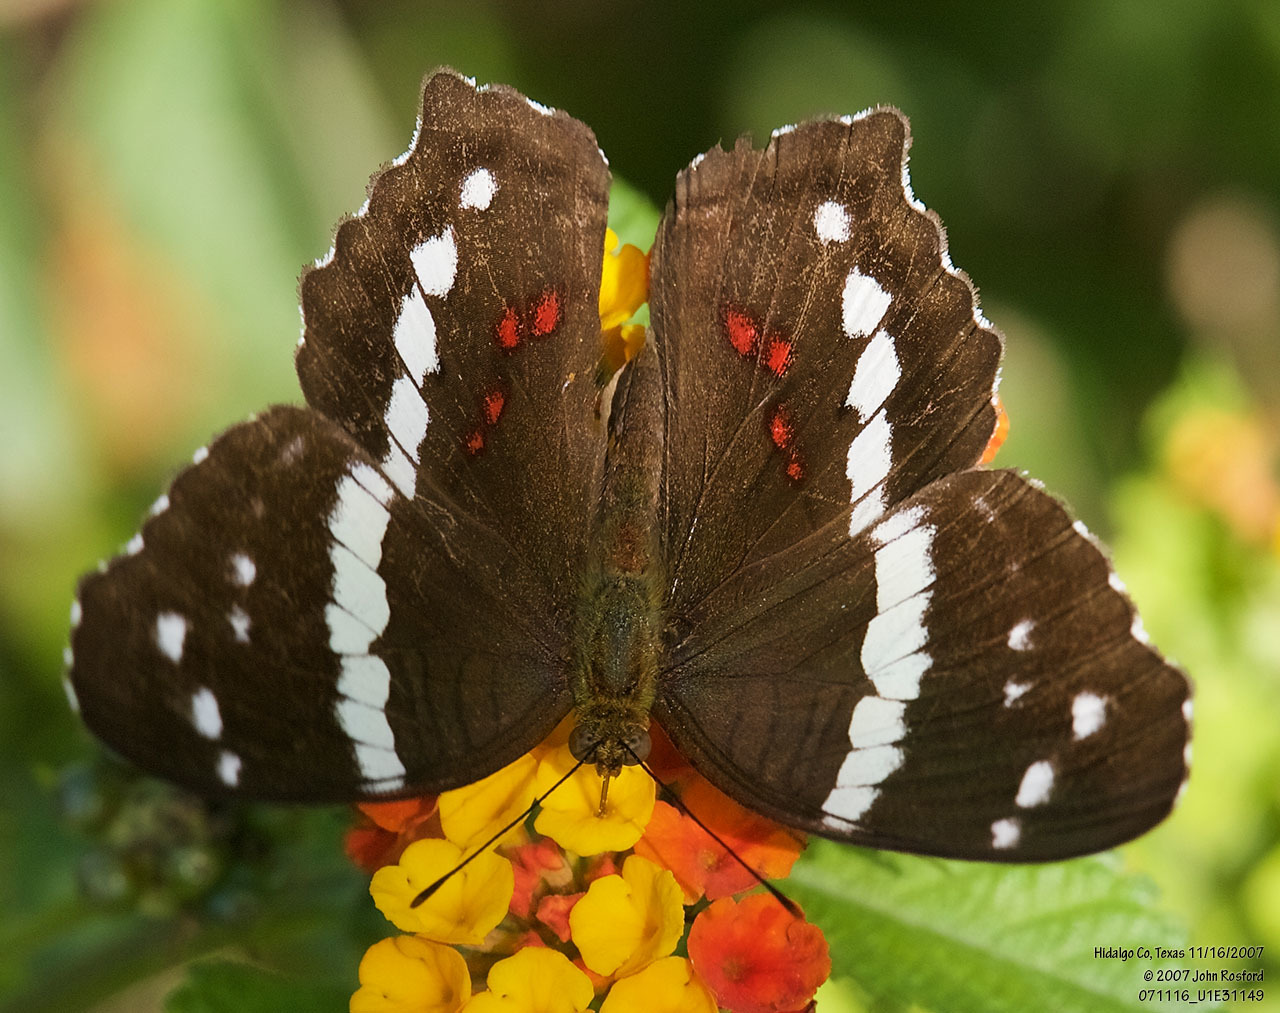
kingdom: Animalia
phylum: Arthropoda
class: Insecta
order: Lepidoptera
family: Nymphalidae
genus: Anartia
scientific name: Anartia fatima
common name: Banded peacock
